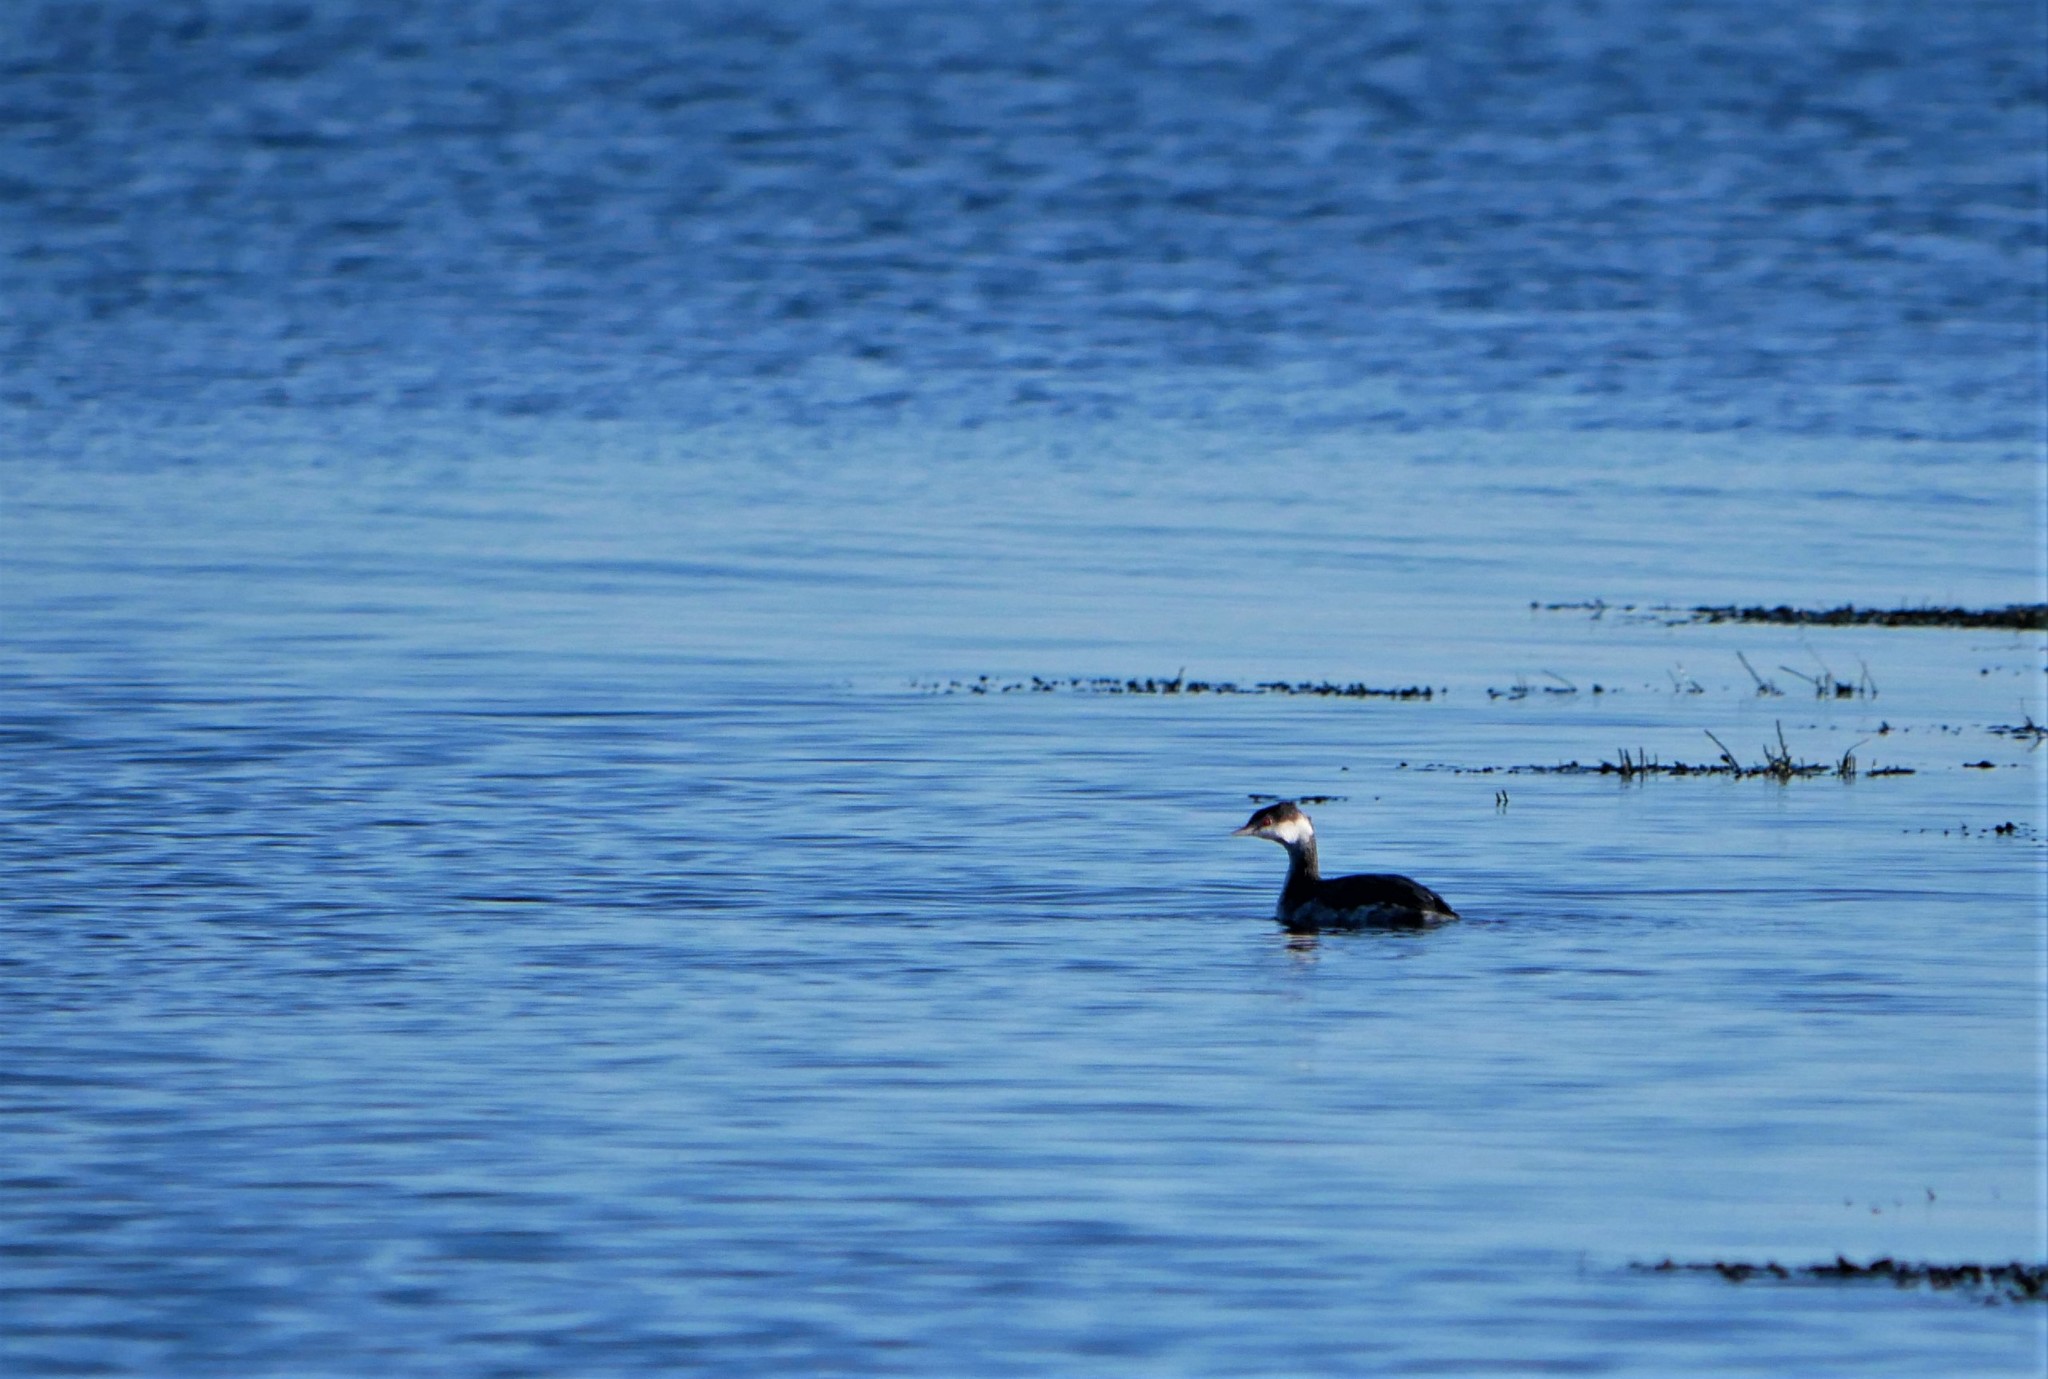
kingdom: Animalia
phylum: Chordata
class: Aves
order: Podicipediformes
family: Podicipedidae
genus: Podiceps
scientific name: Podiceps auritus
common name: Horned grebe
